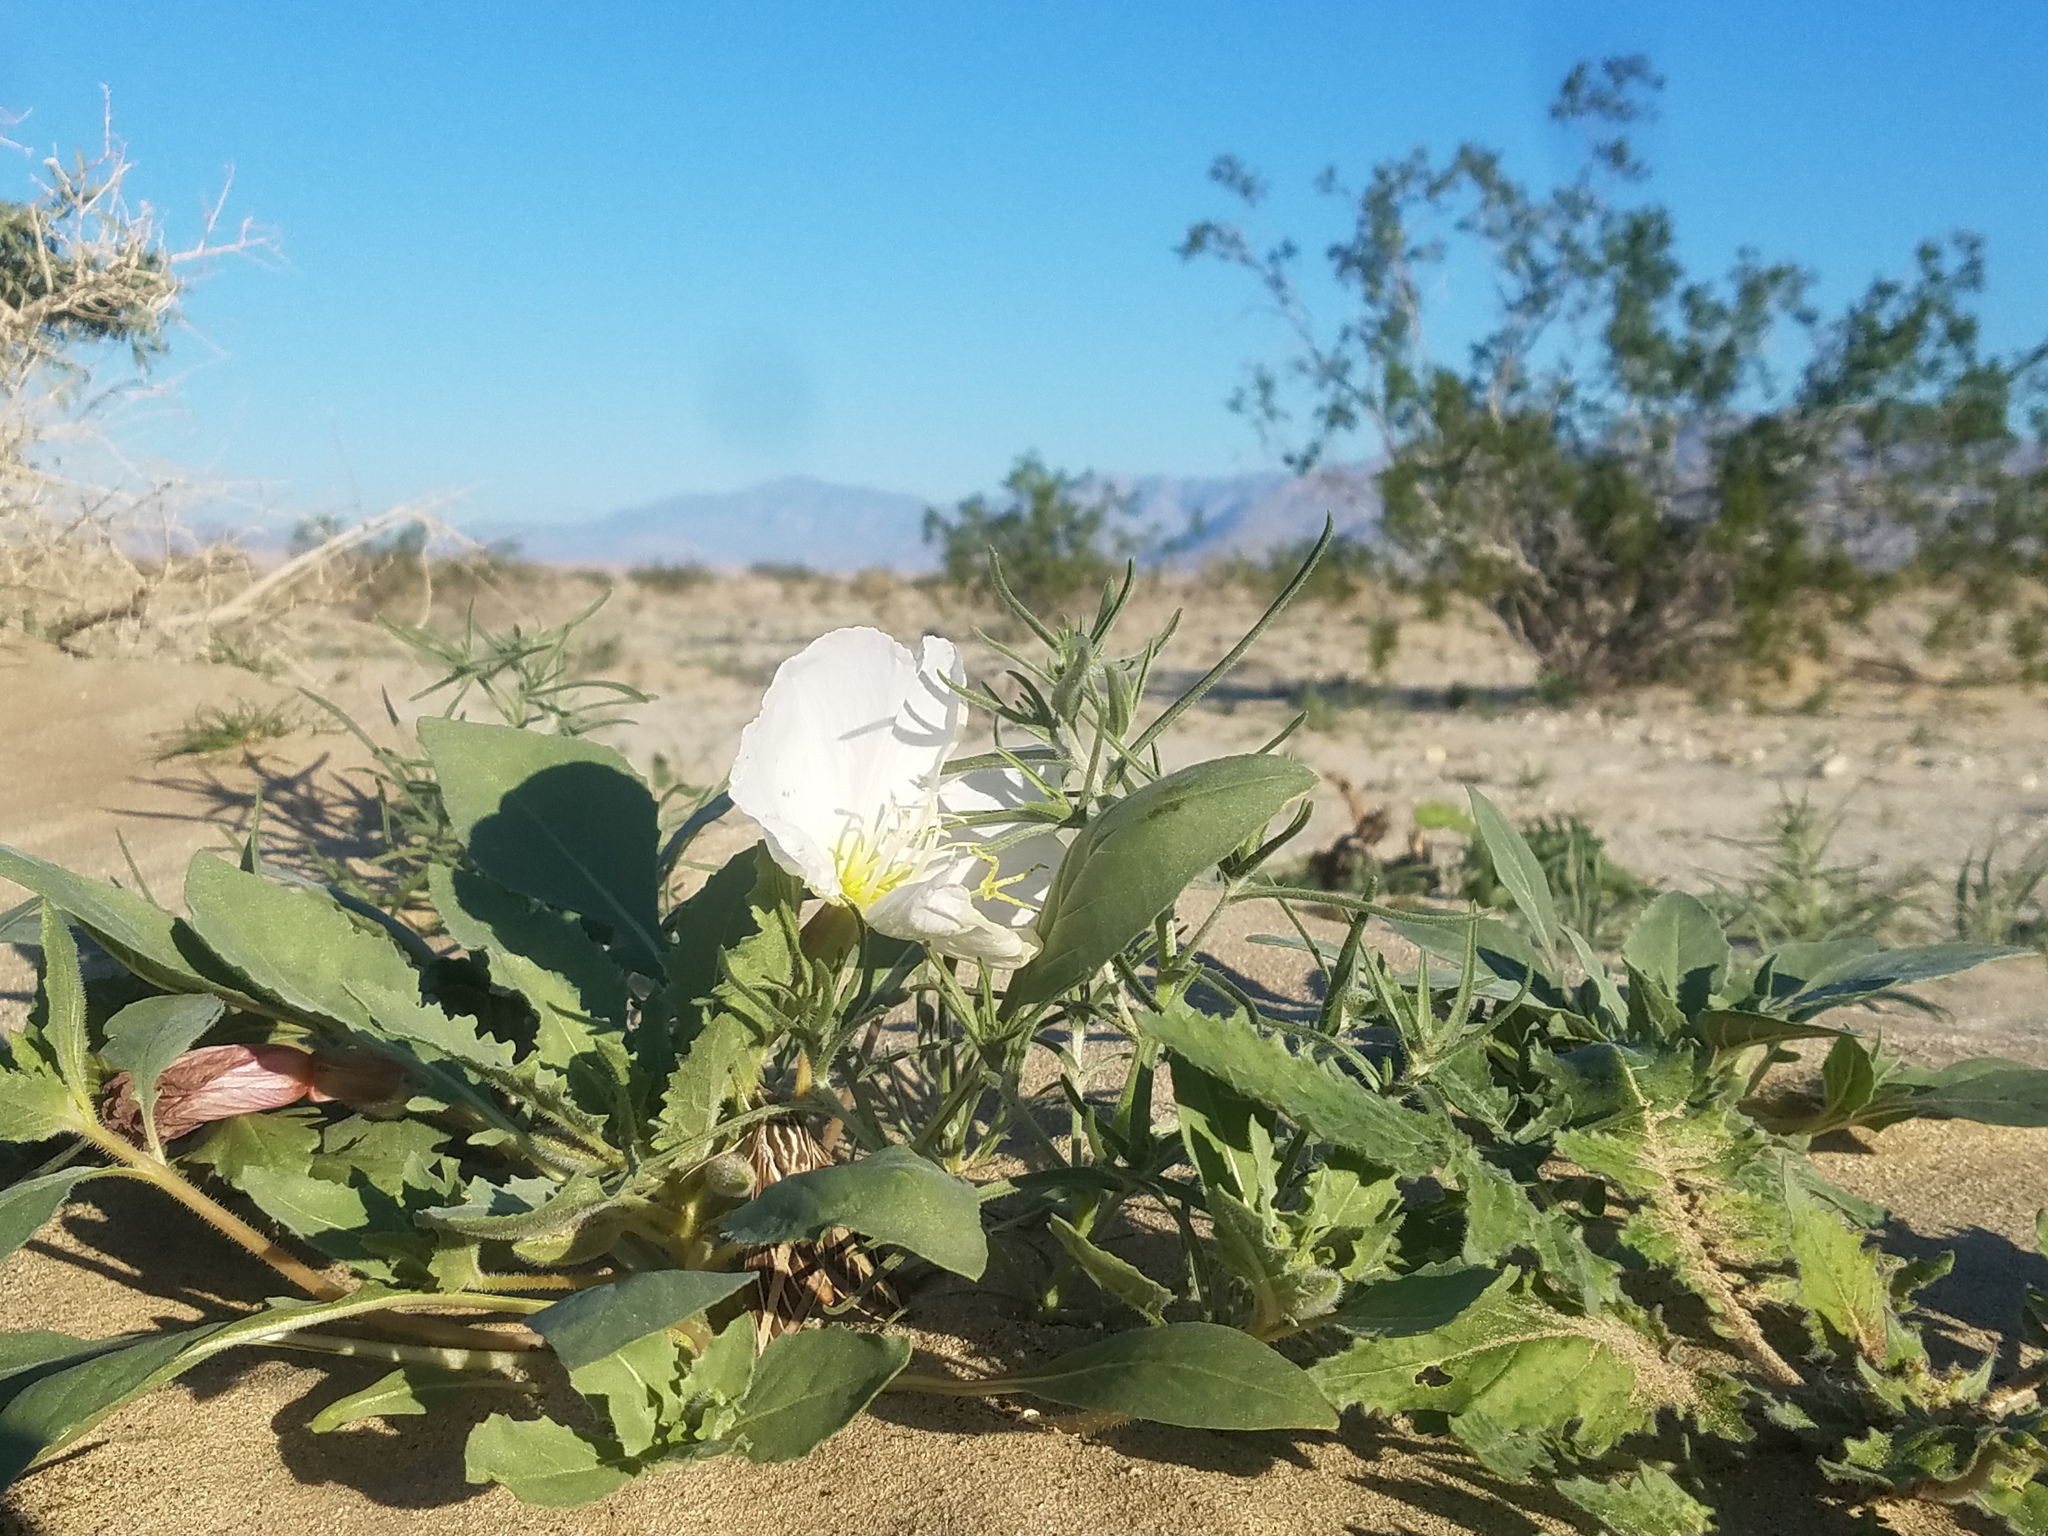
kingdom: Plantae
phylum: Tracheophyta
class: Magnoliopsida
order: Myrtales
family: Onagraceae
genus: Oenothera
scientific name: Oenothera deltoides
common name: Basket evening-primrose
